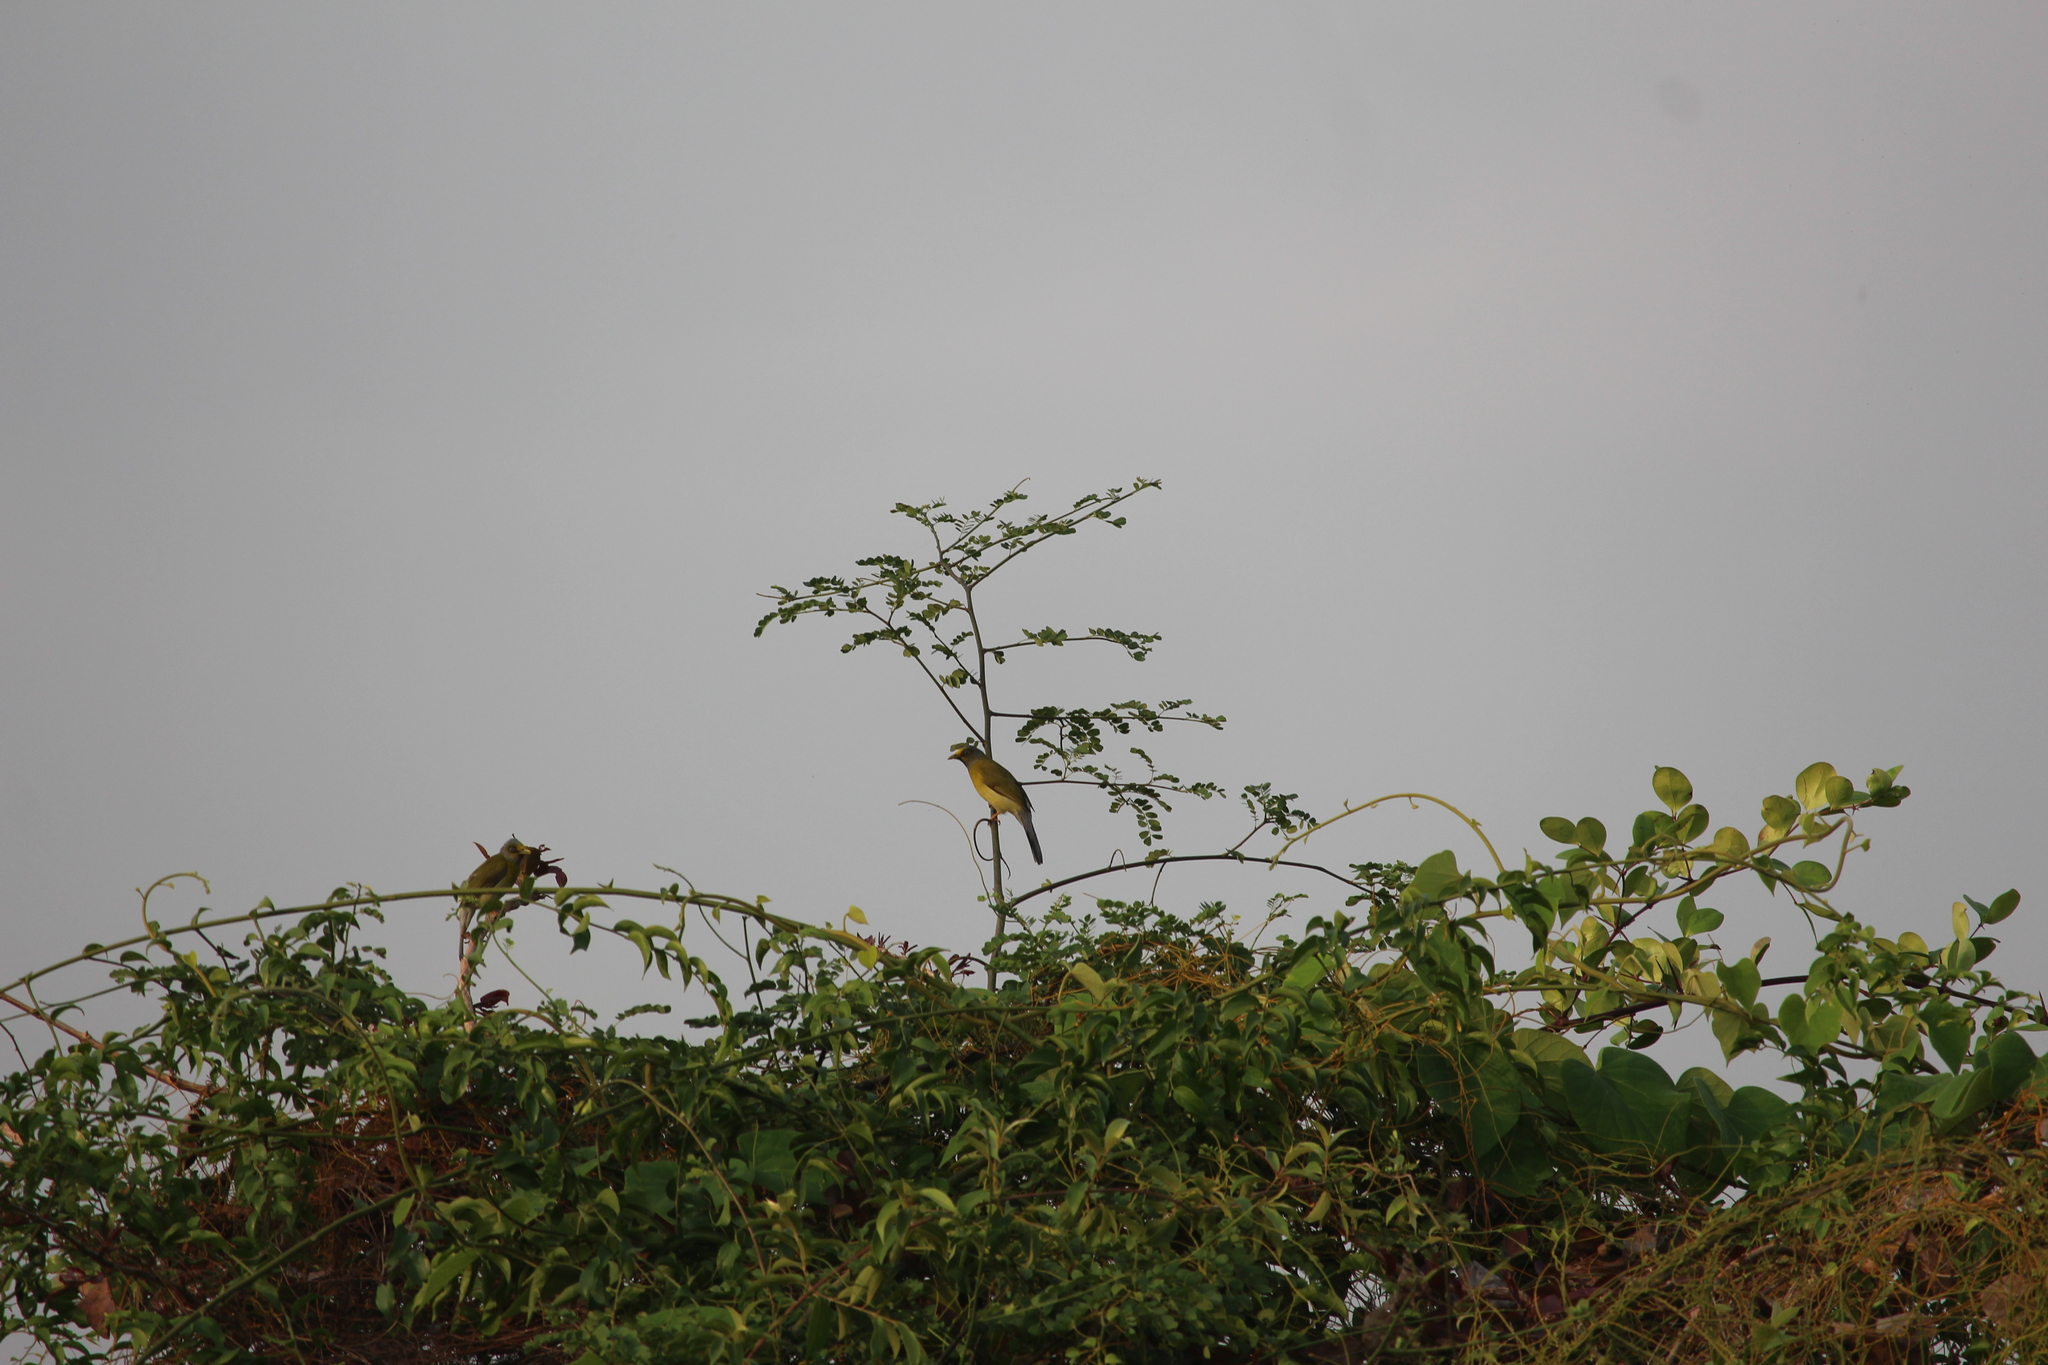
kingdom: Animalia
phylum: Chordata
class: Aves
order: Passeriformes
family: Pycnonotidae
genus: Microtarsus
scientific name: Microtarsus
